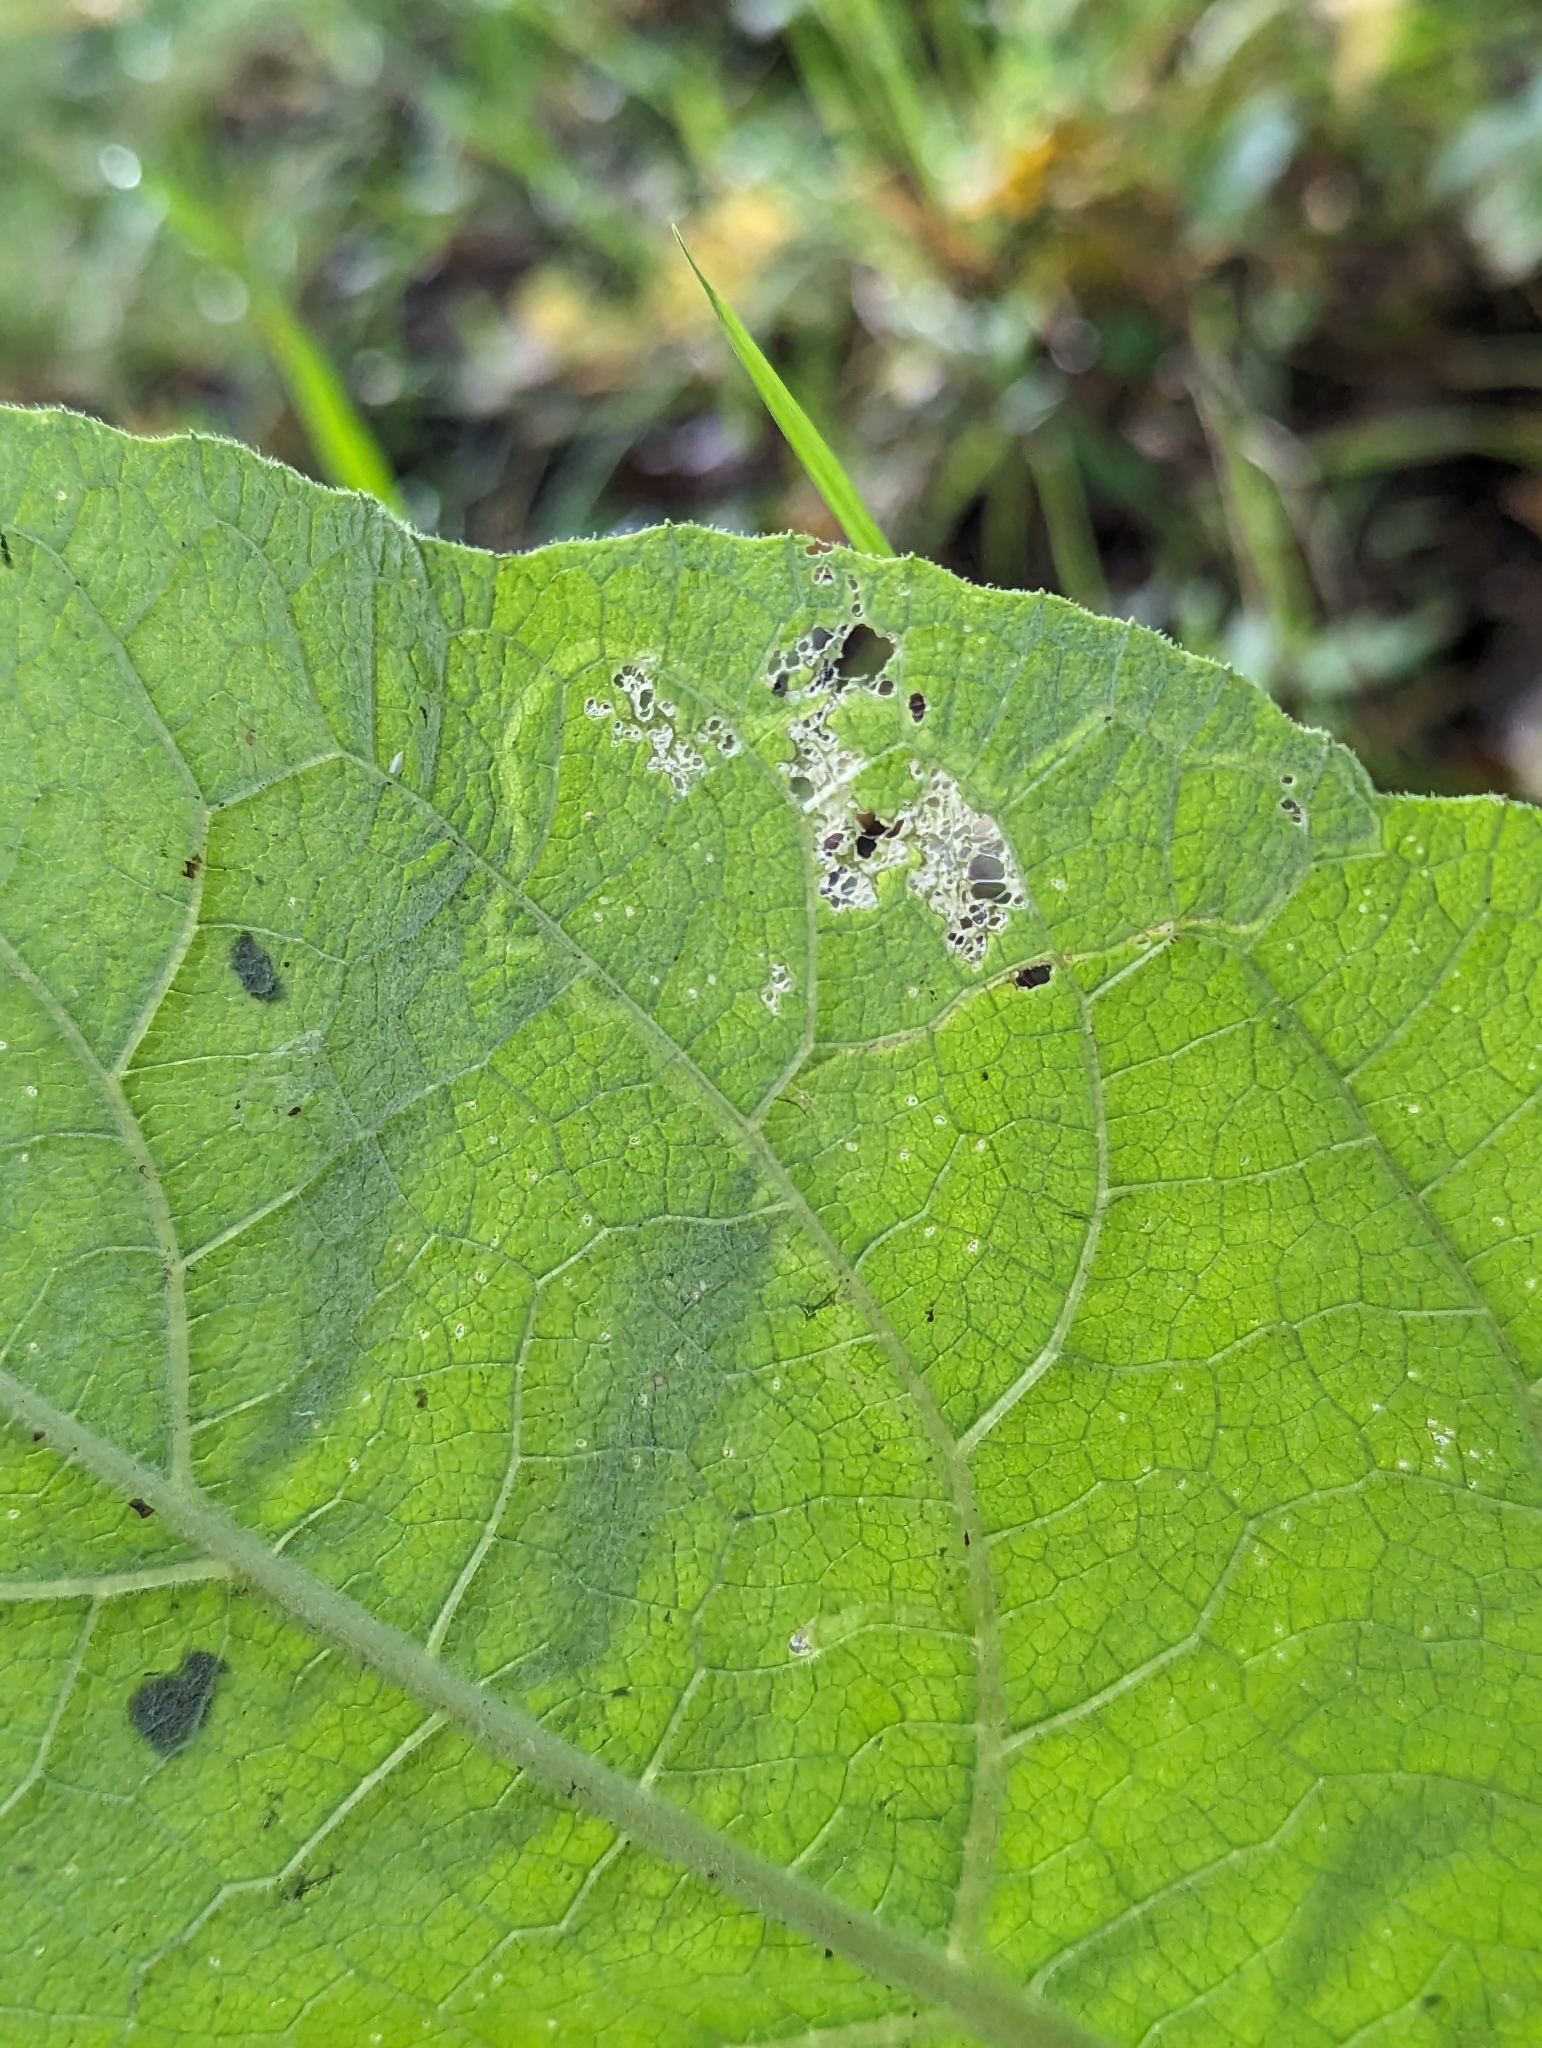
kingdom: Animalia
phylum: Arthropoda
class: Insecta
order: Diptera
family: Agromyzidae
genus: Liriomyza
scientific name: Liriomyza arctii
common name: Burdock leafminer
